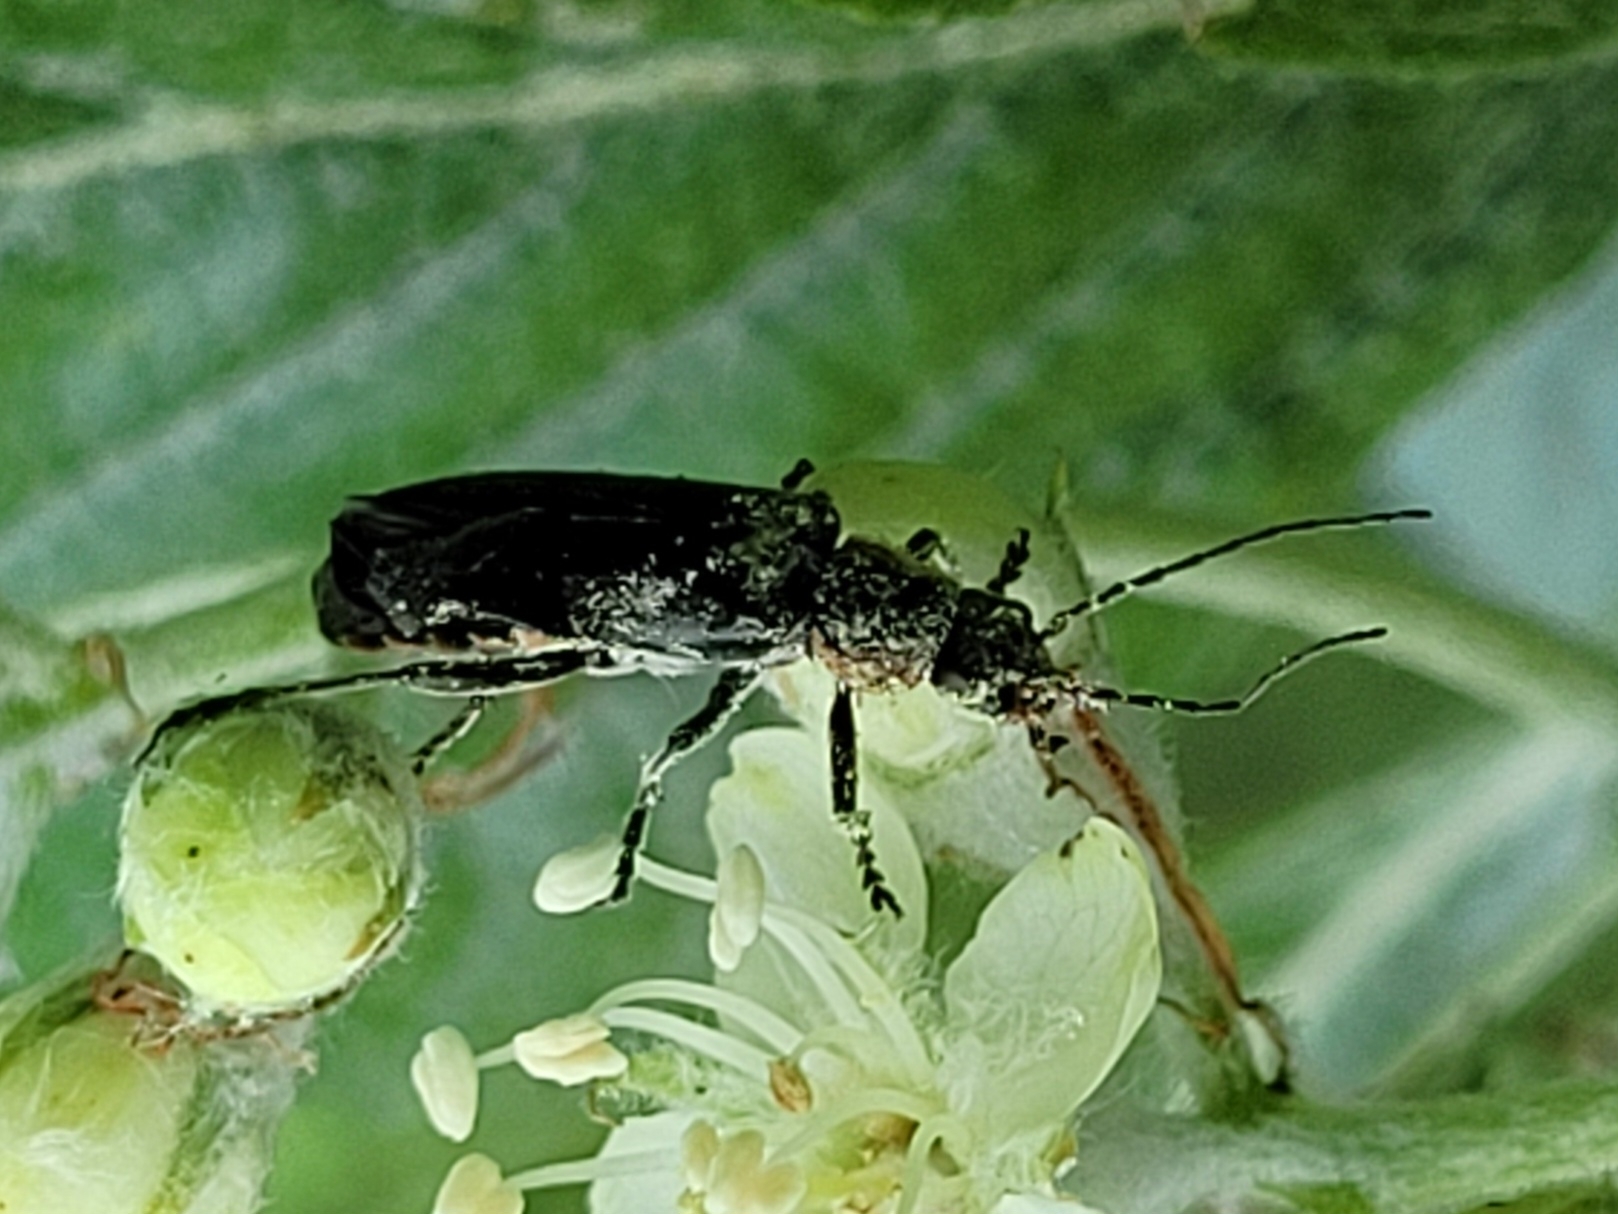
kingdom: Animalia
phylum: Arthropoda
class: Insecta
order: Coleoptera
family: Cantharidae
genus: Cantharis
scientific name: Cantharis
